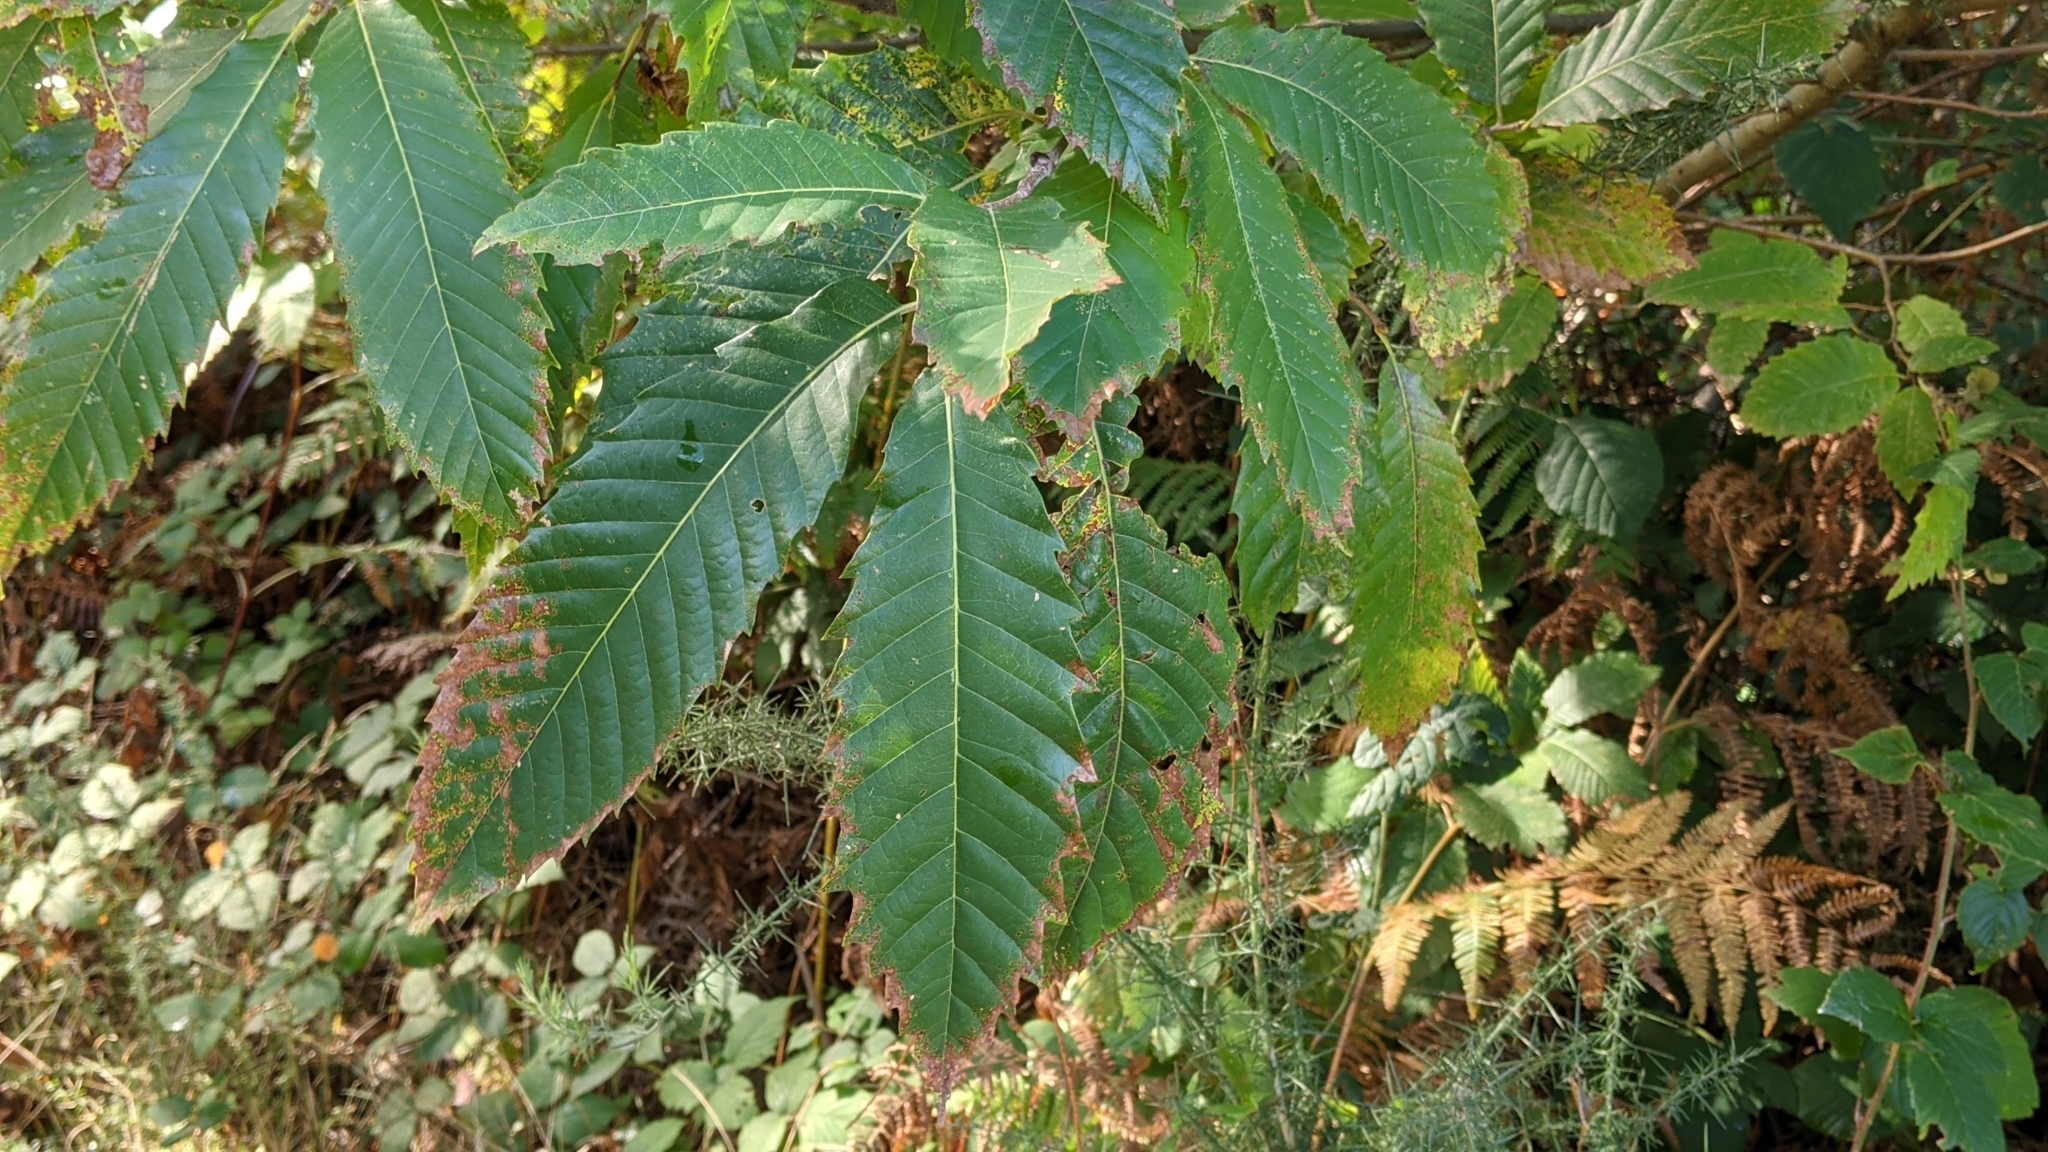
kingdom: Plantae
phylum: Tracheophyta
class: Magnoliopsida
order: Fagales
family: Fagaceae
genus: Castanea
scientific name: Castanea sativa
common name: Sweet chestnut
